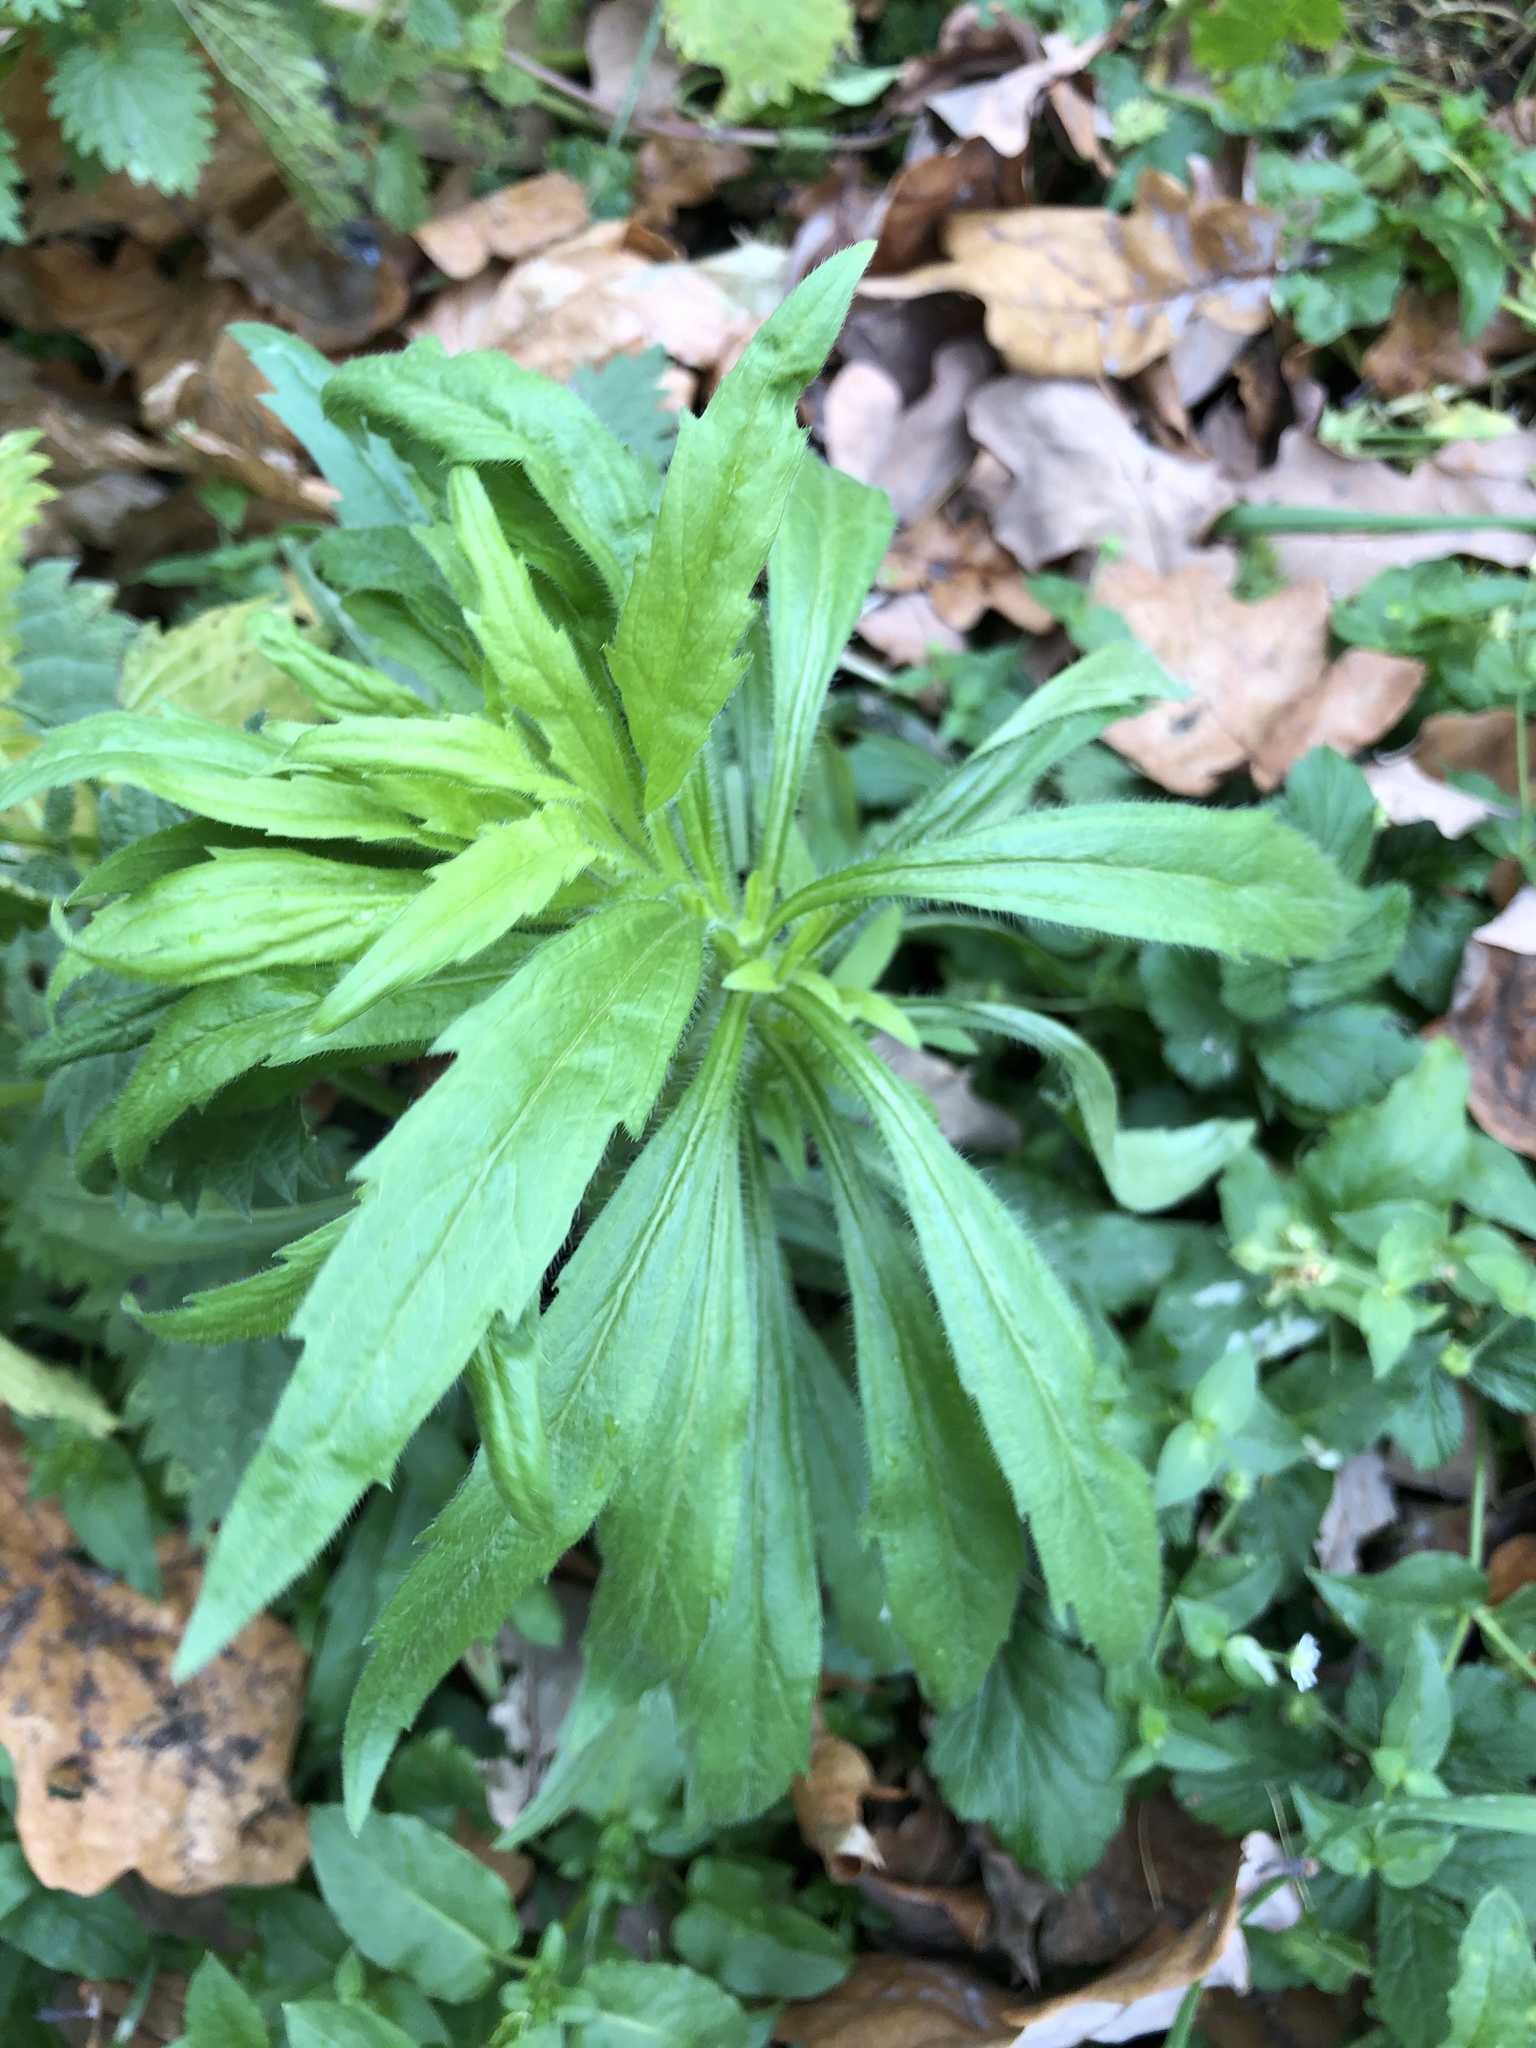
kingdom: Plantae
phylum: Tracheophyta
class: Magnoliopsida
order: Asterales
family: Asteraceae
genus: Erigeron
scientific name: Erigeron canadensis
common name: Canadian fleabane
